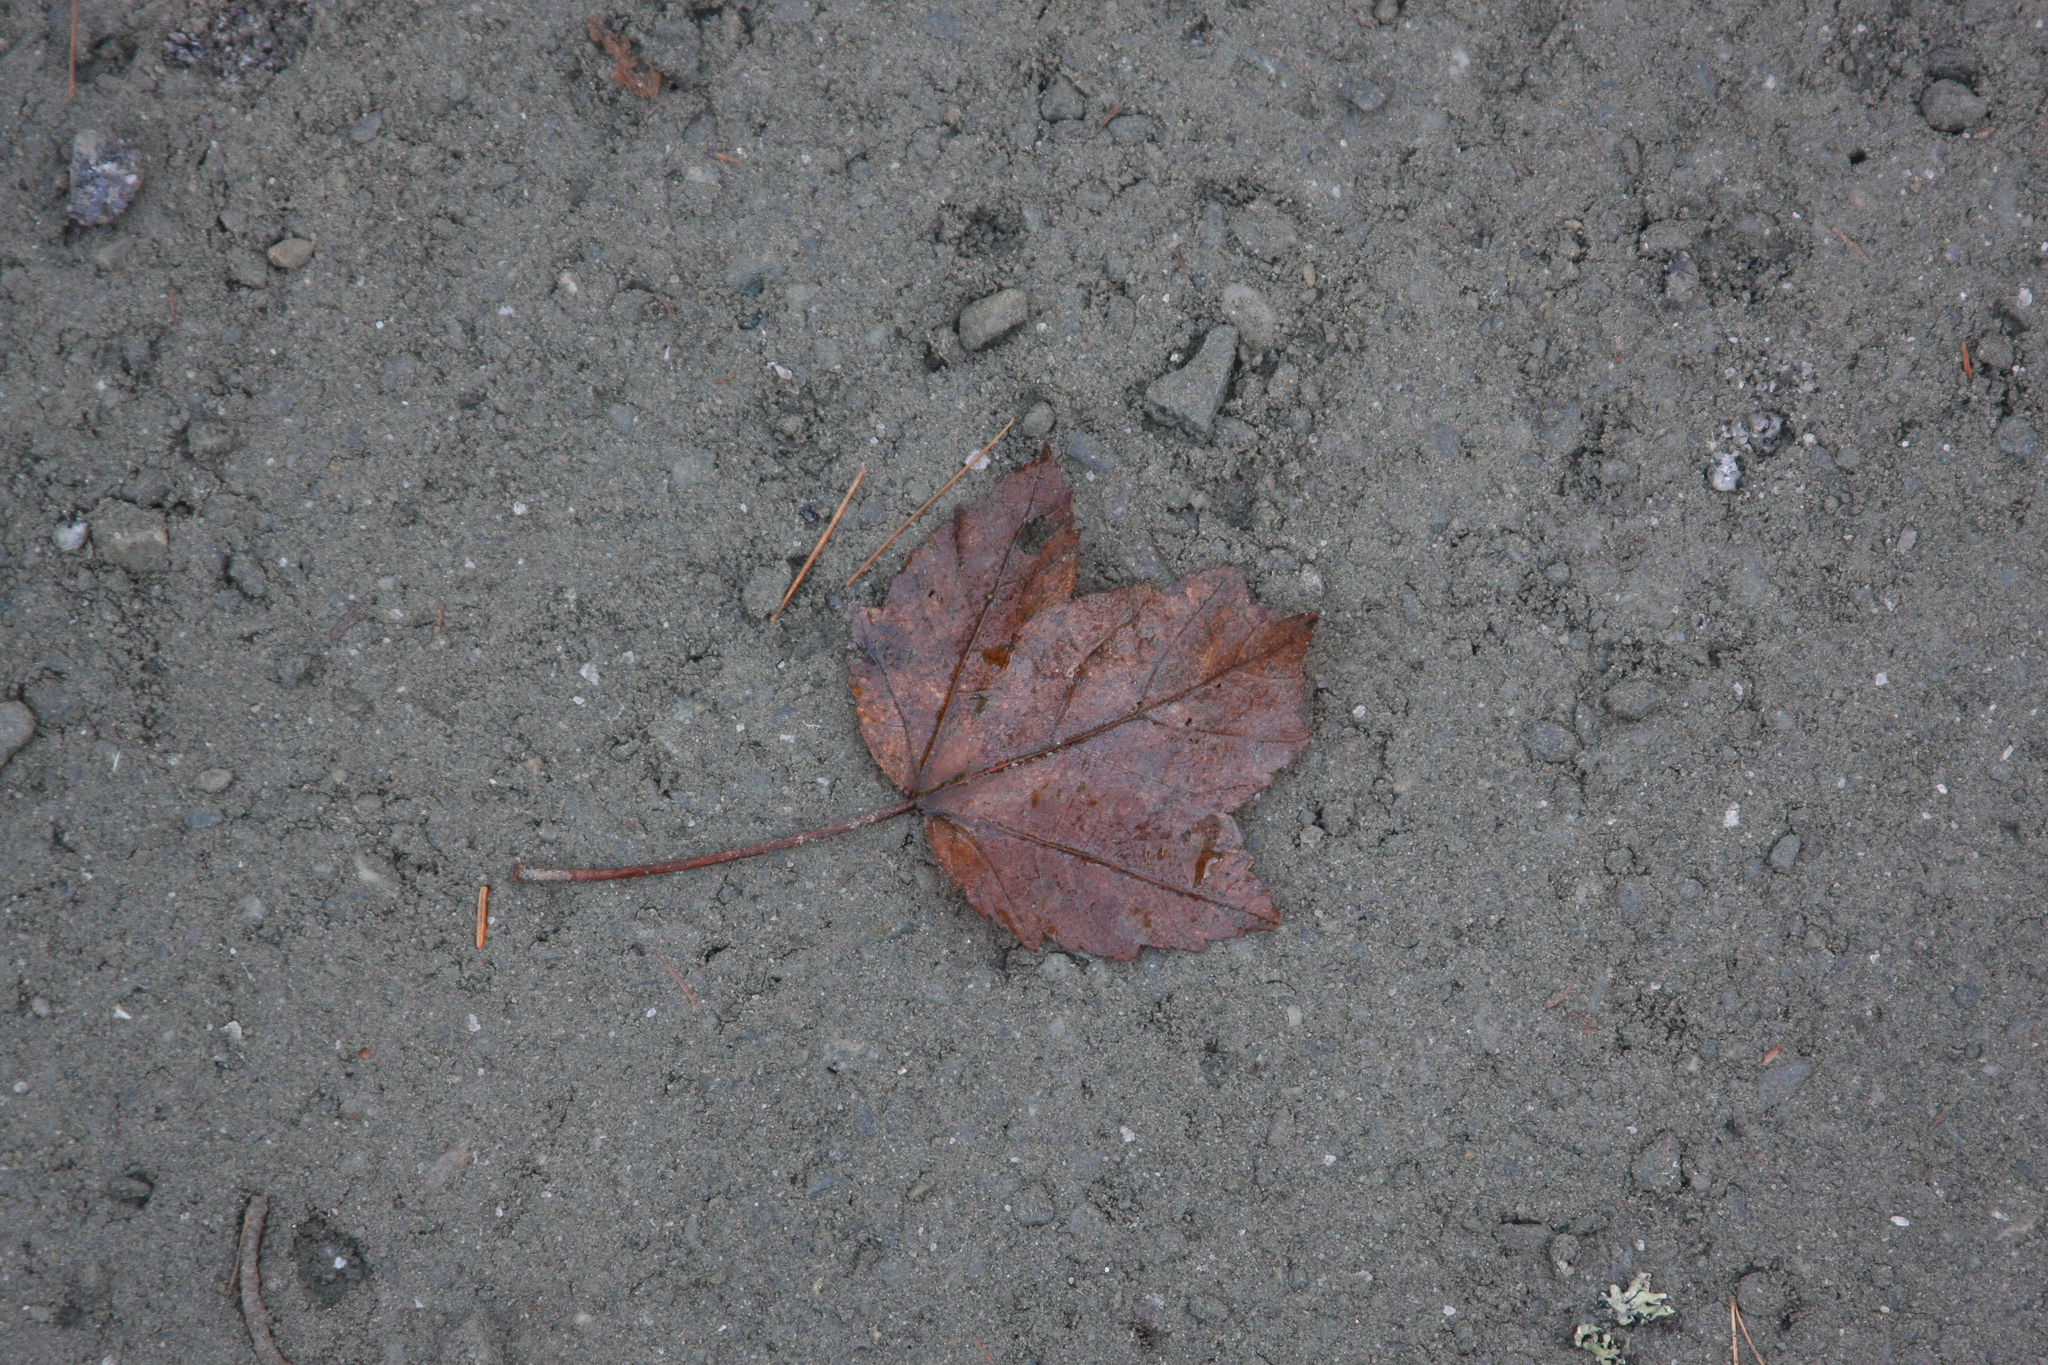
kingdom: Plantae
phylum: Tracheophyta
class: Magnoliopsida
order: Sapindales
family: Sapindaceae
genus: Acer
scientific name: Acer rubrum
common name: Red maple
